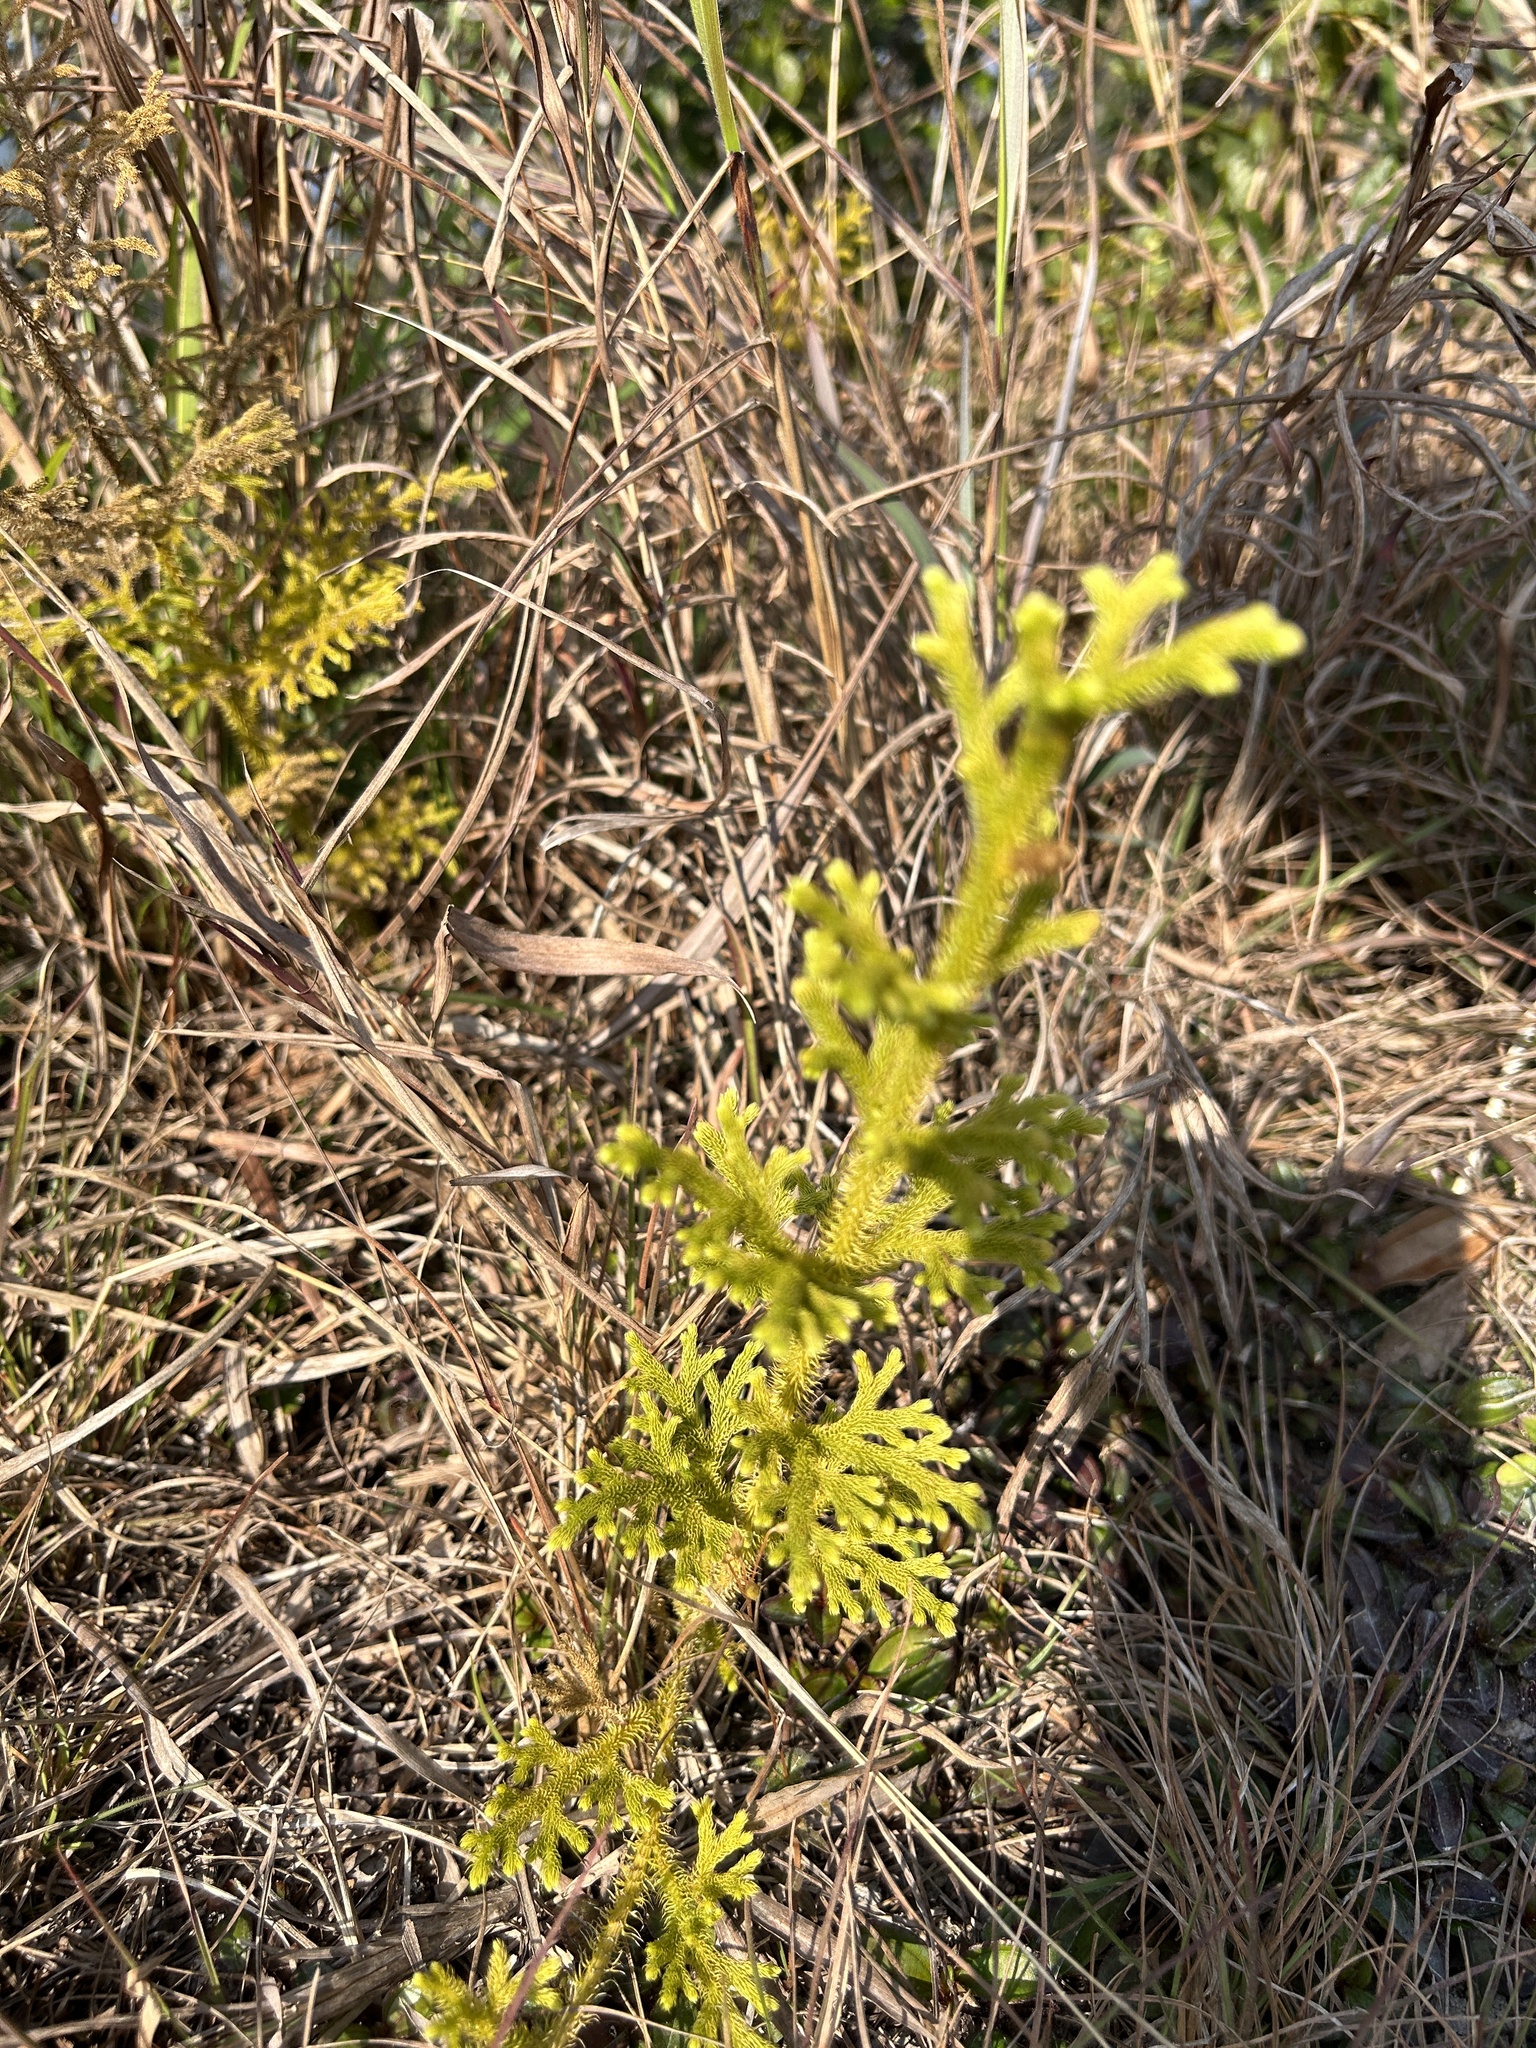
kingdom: Plantae
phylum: Tracheophyta
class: Lycopodiopsida
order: Lycopodiales
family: Lycopodiaceae
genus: Palhinhaea
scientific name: Palhinhaea cernua
